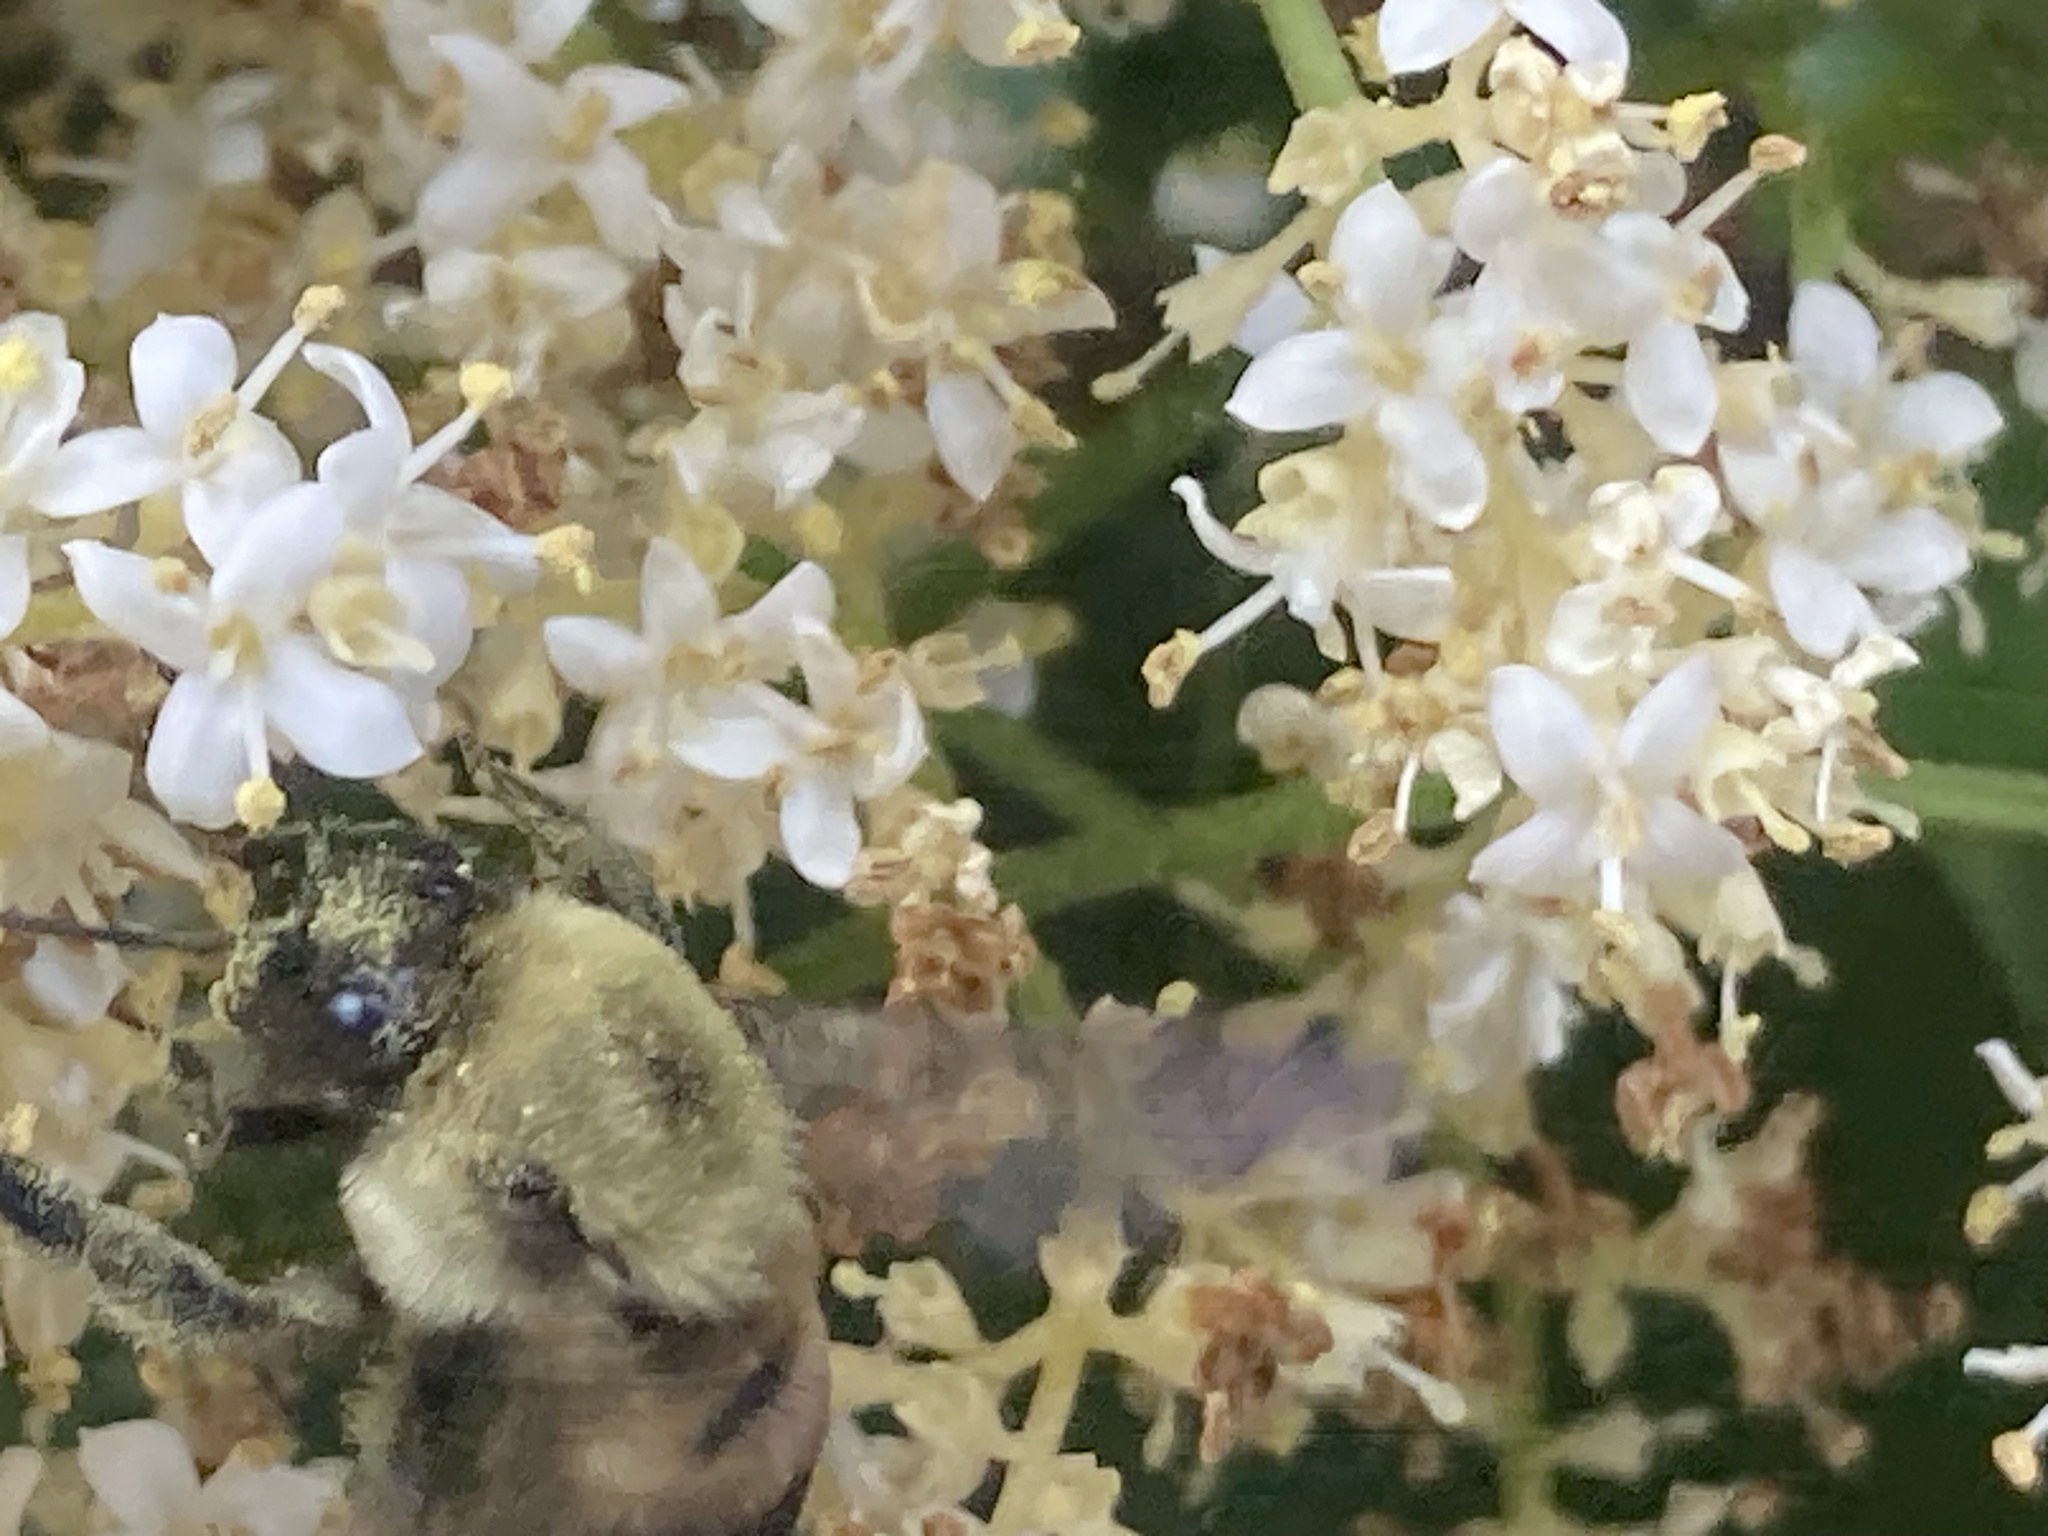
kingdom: Animalia
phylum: Arthropoda
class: Insecta
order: Hymenoptera
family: Apidae
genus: Bombus
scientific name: Bombus griseocollis
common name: Brown-belted bumble bee
